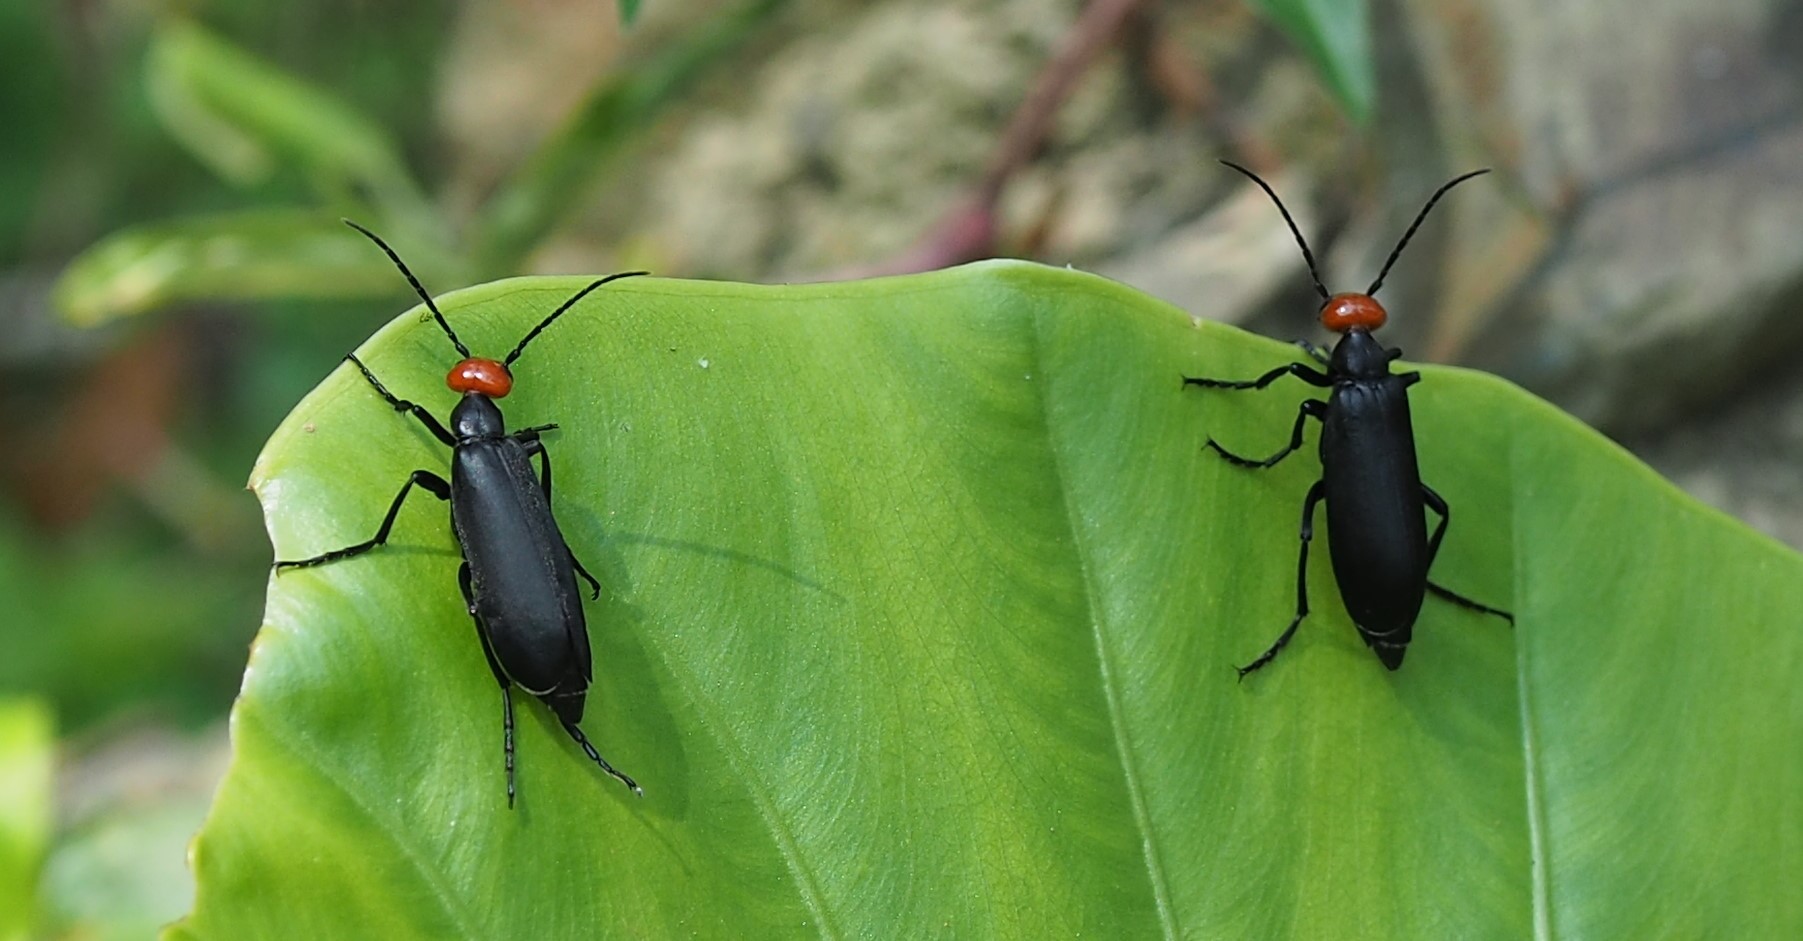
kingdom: Animalia
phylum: Arthropoda
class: Insecta
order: Coleoptera
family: Meloidae
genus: Epicauta
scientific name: Epicauta hirticornis
